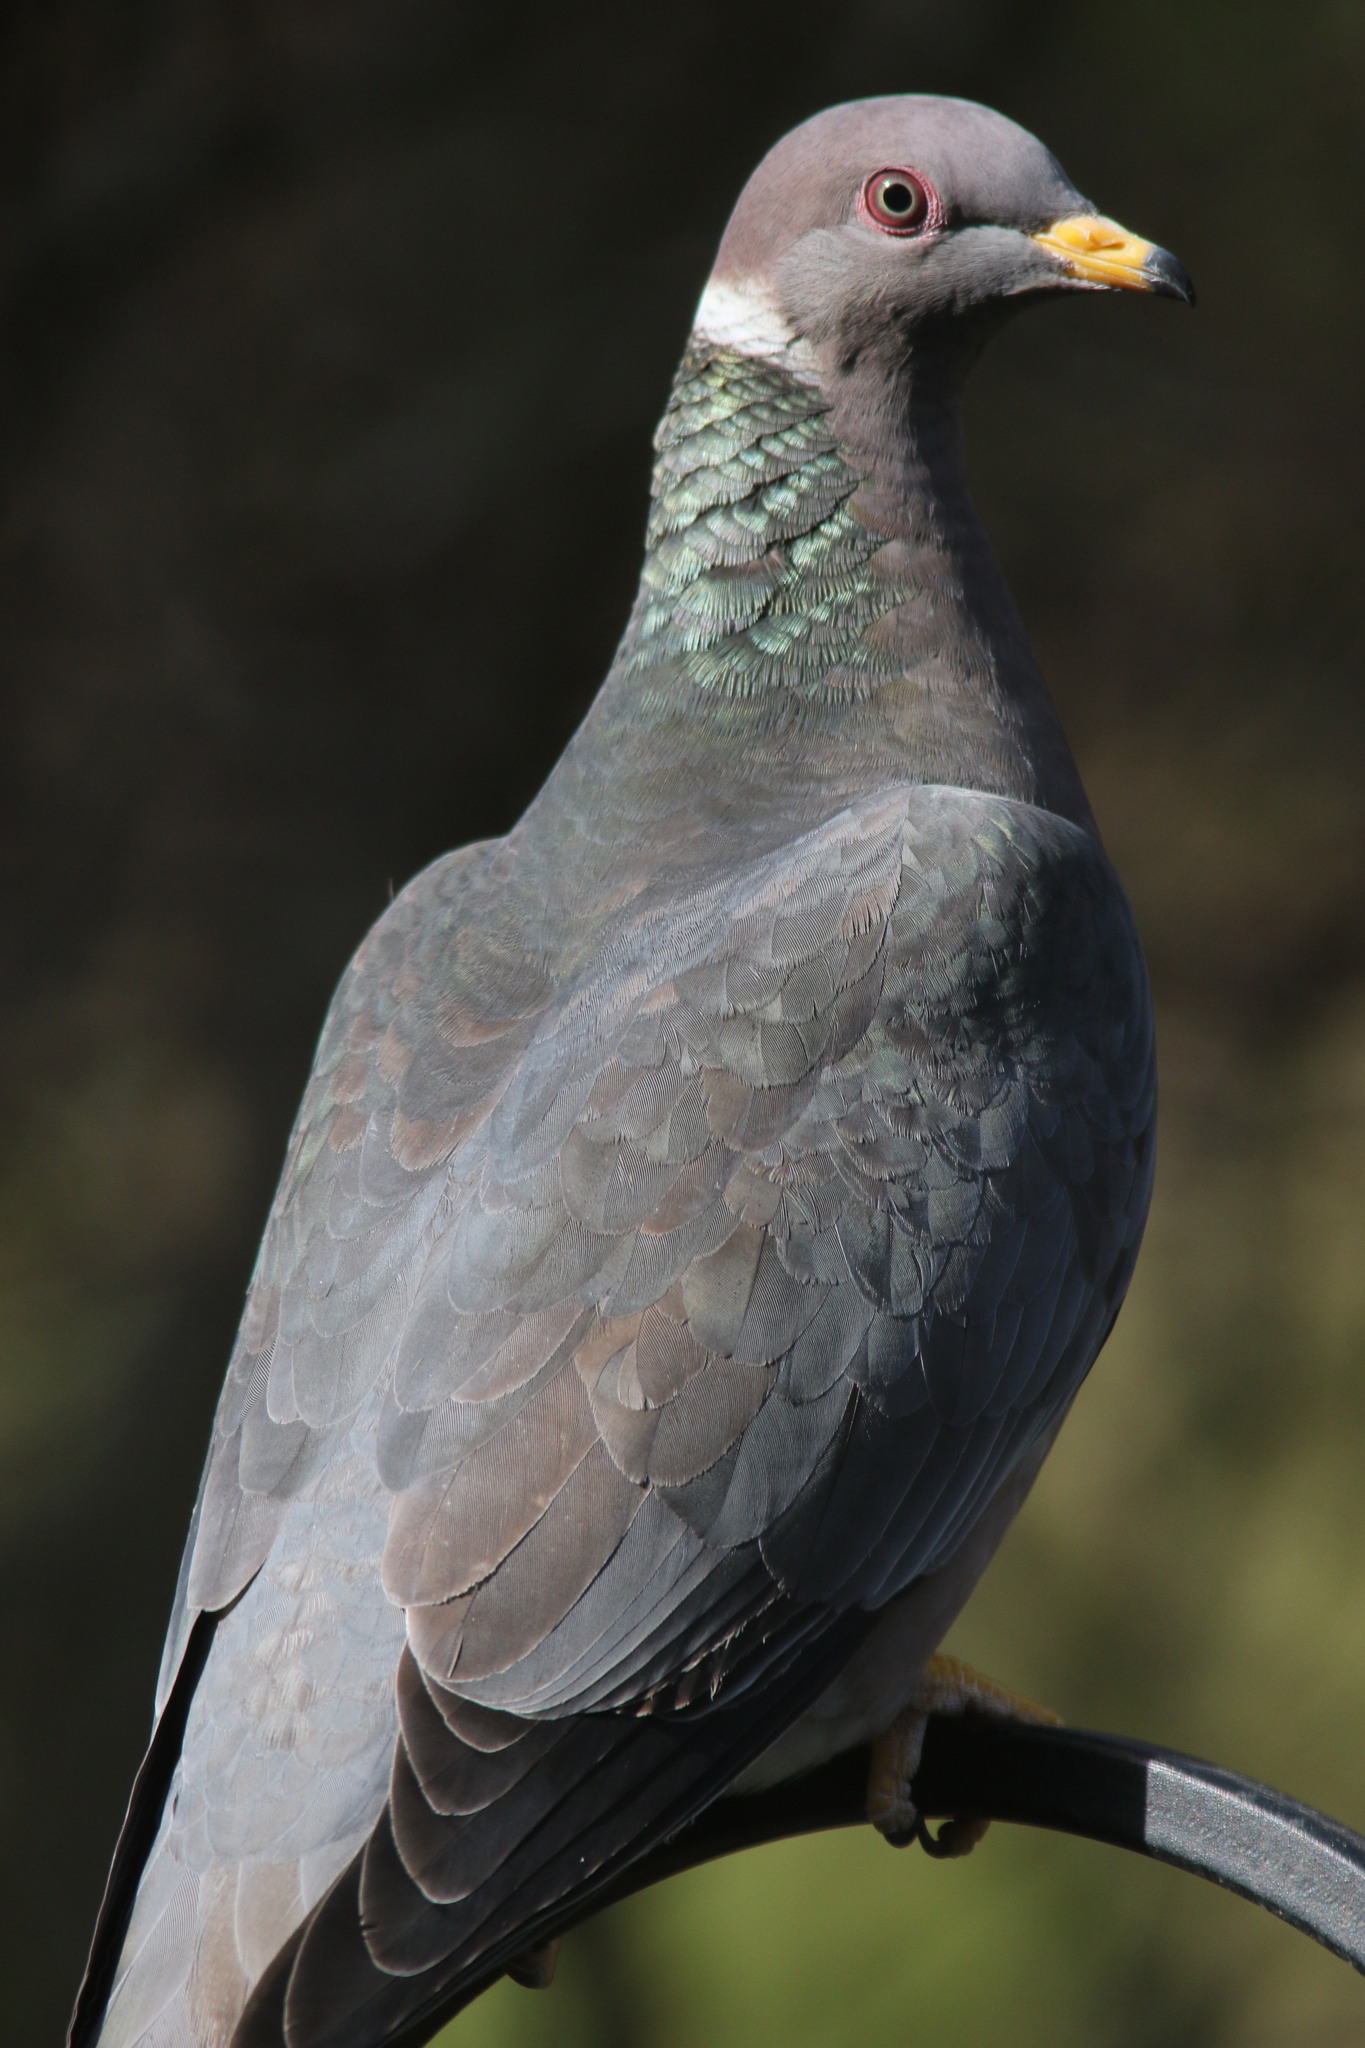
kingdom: Animalia
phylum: Chordata
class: Aves
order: Columbiformes
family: Columbidae
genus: Patagioenas
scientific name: Patagioenas fasciata
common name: Band-tailed pigeon
